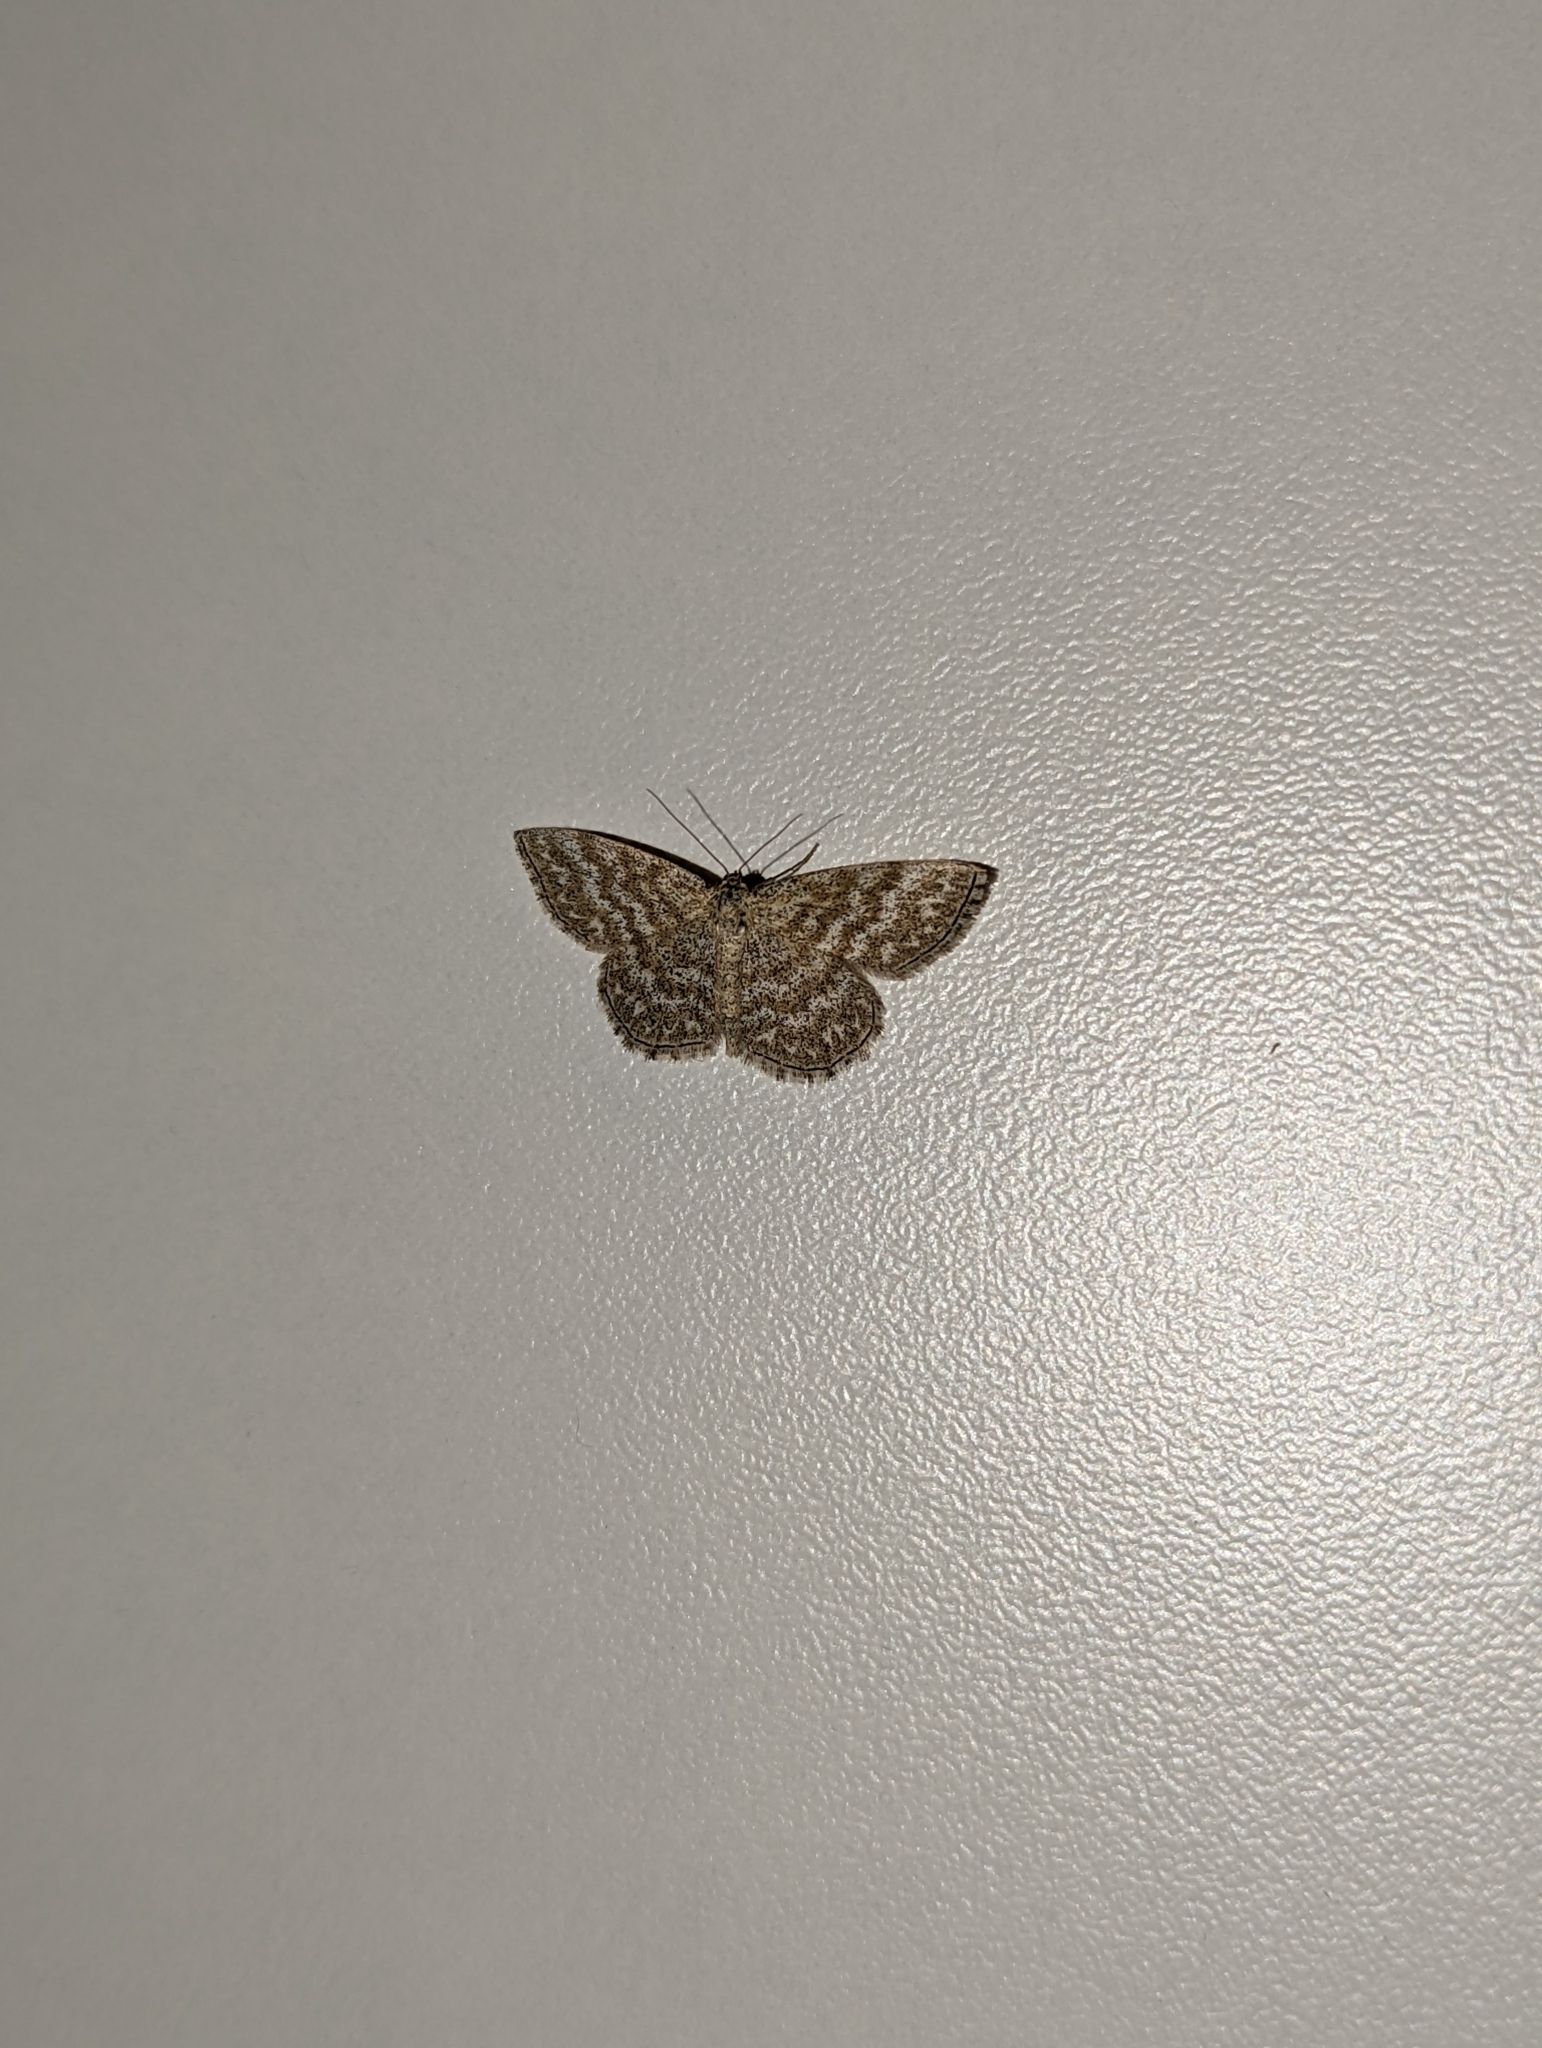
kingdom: Animalia
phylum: Arthropoda
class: Insecta
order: Lepidoptera
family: Geometridae
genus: Scopula
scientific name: Scopula immorata
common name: Lewes wave
